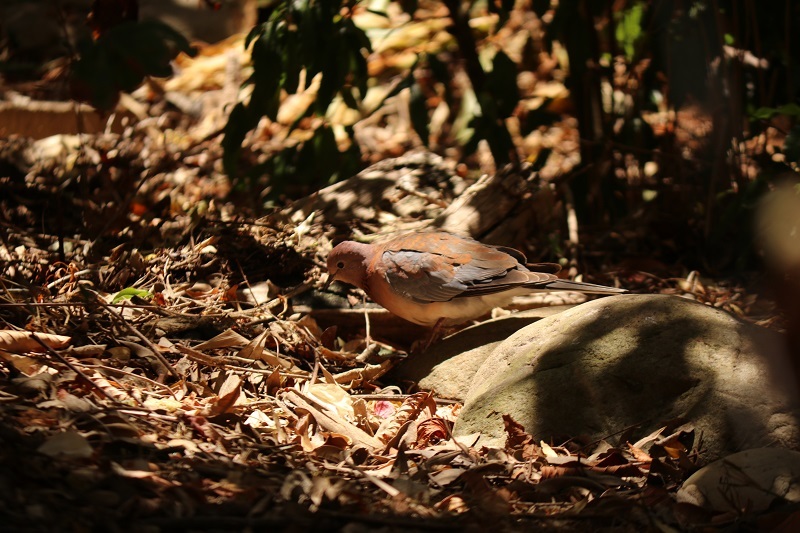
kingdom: Animalia
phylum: Chordata
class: Aves
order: Columbiformes
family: Columbidae
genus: Spilopelia
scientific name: Spilopelia senegalensis
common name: Laughing dove
